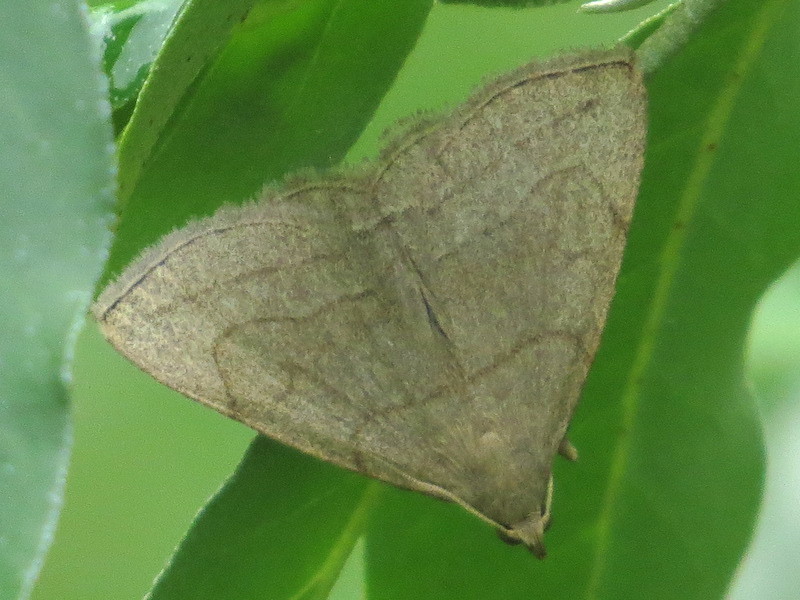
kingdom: Animalia
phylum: Arthropoda
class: Insecta
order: Lepidoptera
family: Erebidae
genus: Zanclognatha
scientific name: Zanclognatha pedipilalis
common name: Grayish fan-foot
